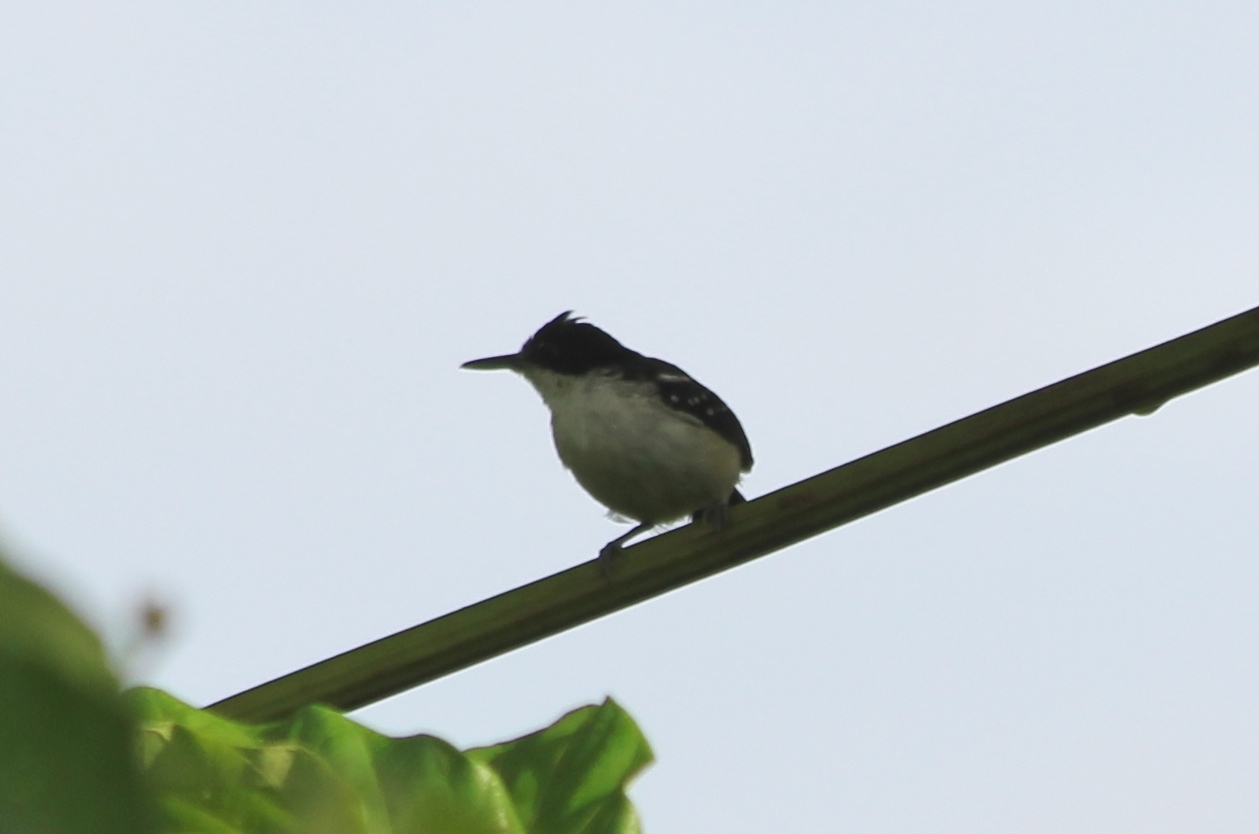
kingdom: Animalia
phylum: Chordata
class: Aves
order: Passeriformes
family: Thamnophilidae
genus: Myrmochanes
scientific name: Myrmochanes hemileucus
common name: Black-and-white antbird
